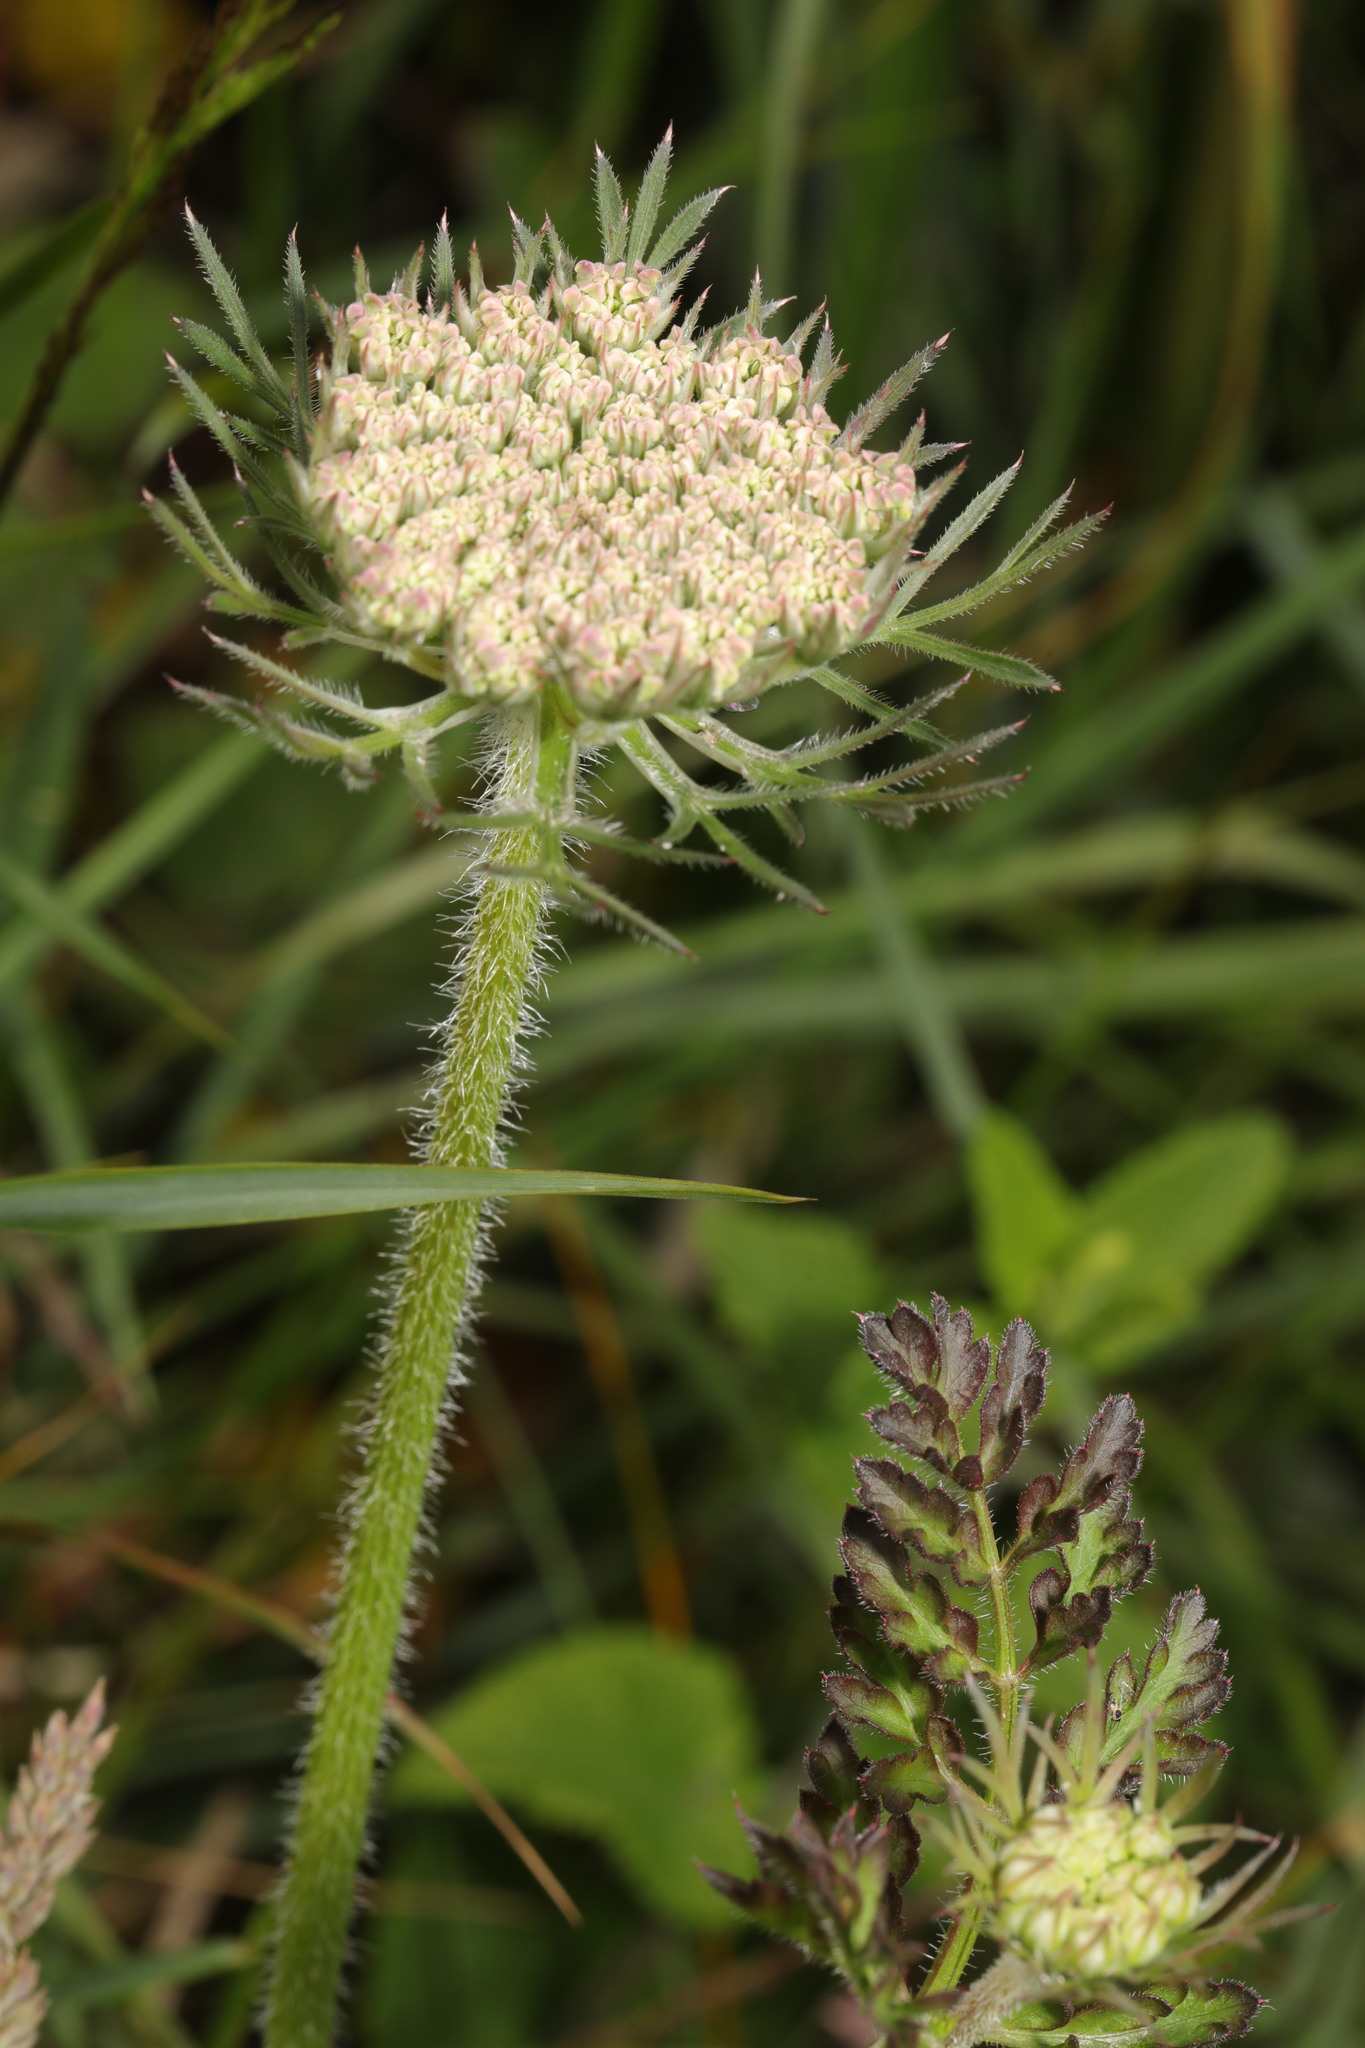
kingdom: Plantae
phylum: Tracheophyta
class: Magnoliopsida
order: Apiales
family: Apiaceae
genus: Daucus
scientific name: Daucus carota
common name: Wild carrot
